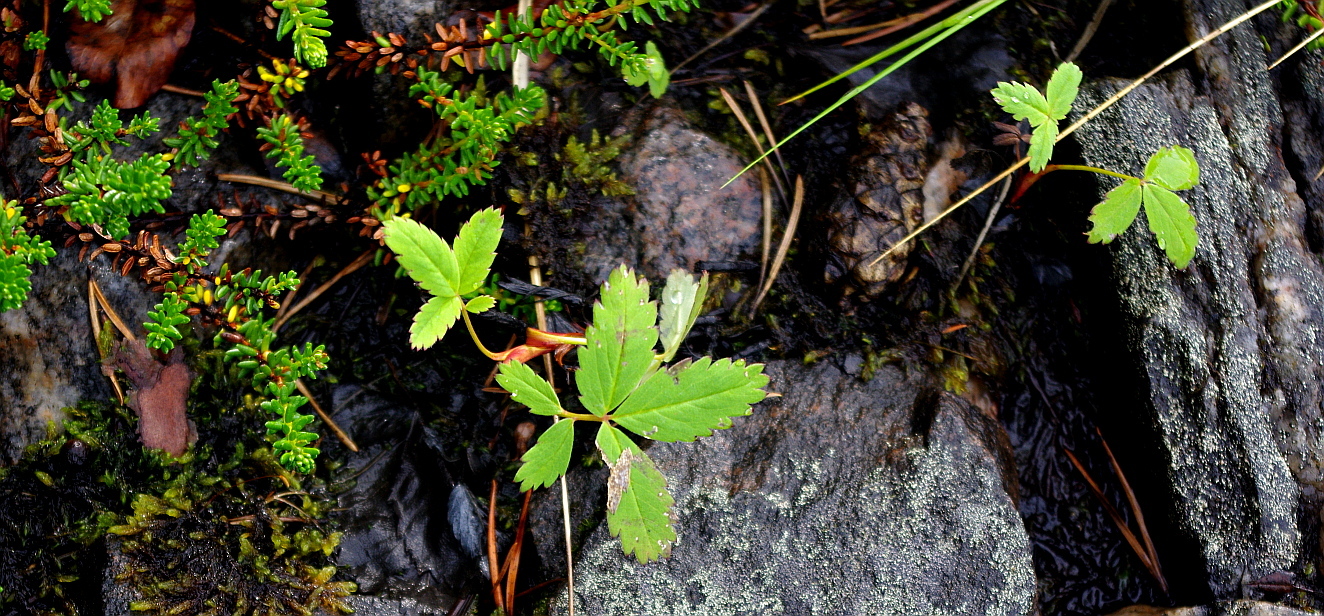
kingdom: Plantae
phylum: Tracheophyta
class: Magnoliopsida
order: Rosales
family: Rosaceae
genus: Comarum
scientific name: Comarum palustre
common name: Marsh cinquefoil
